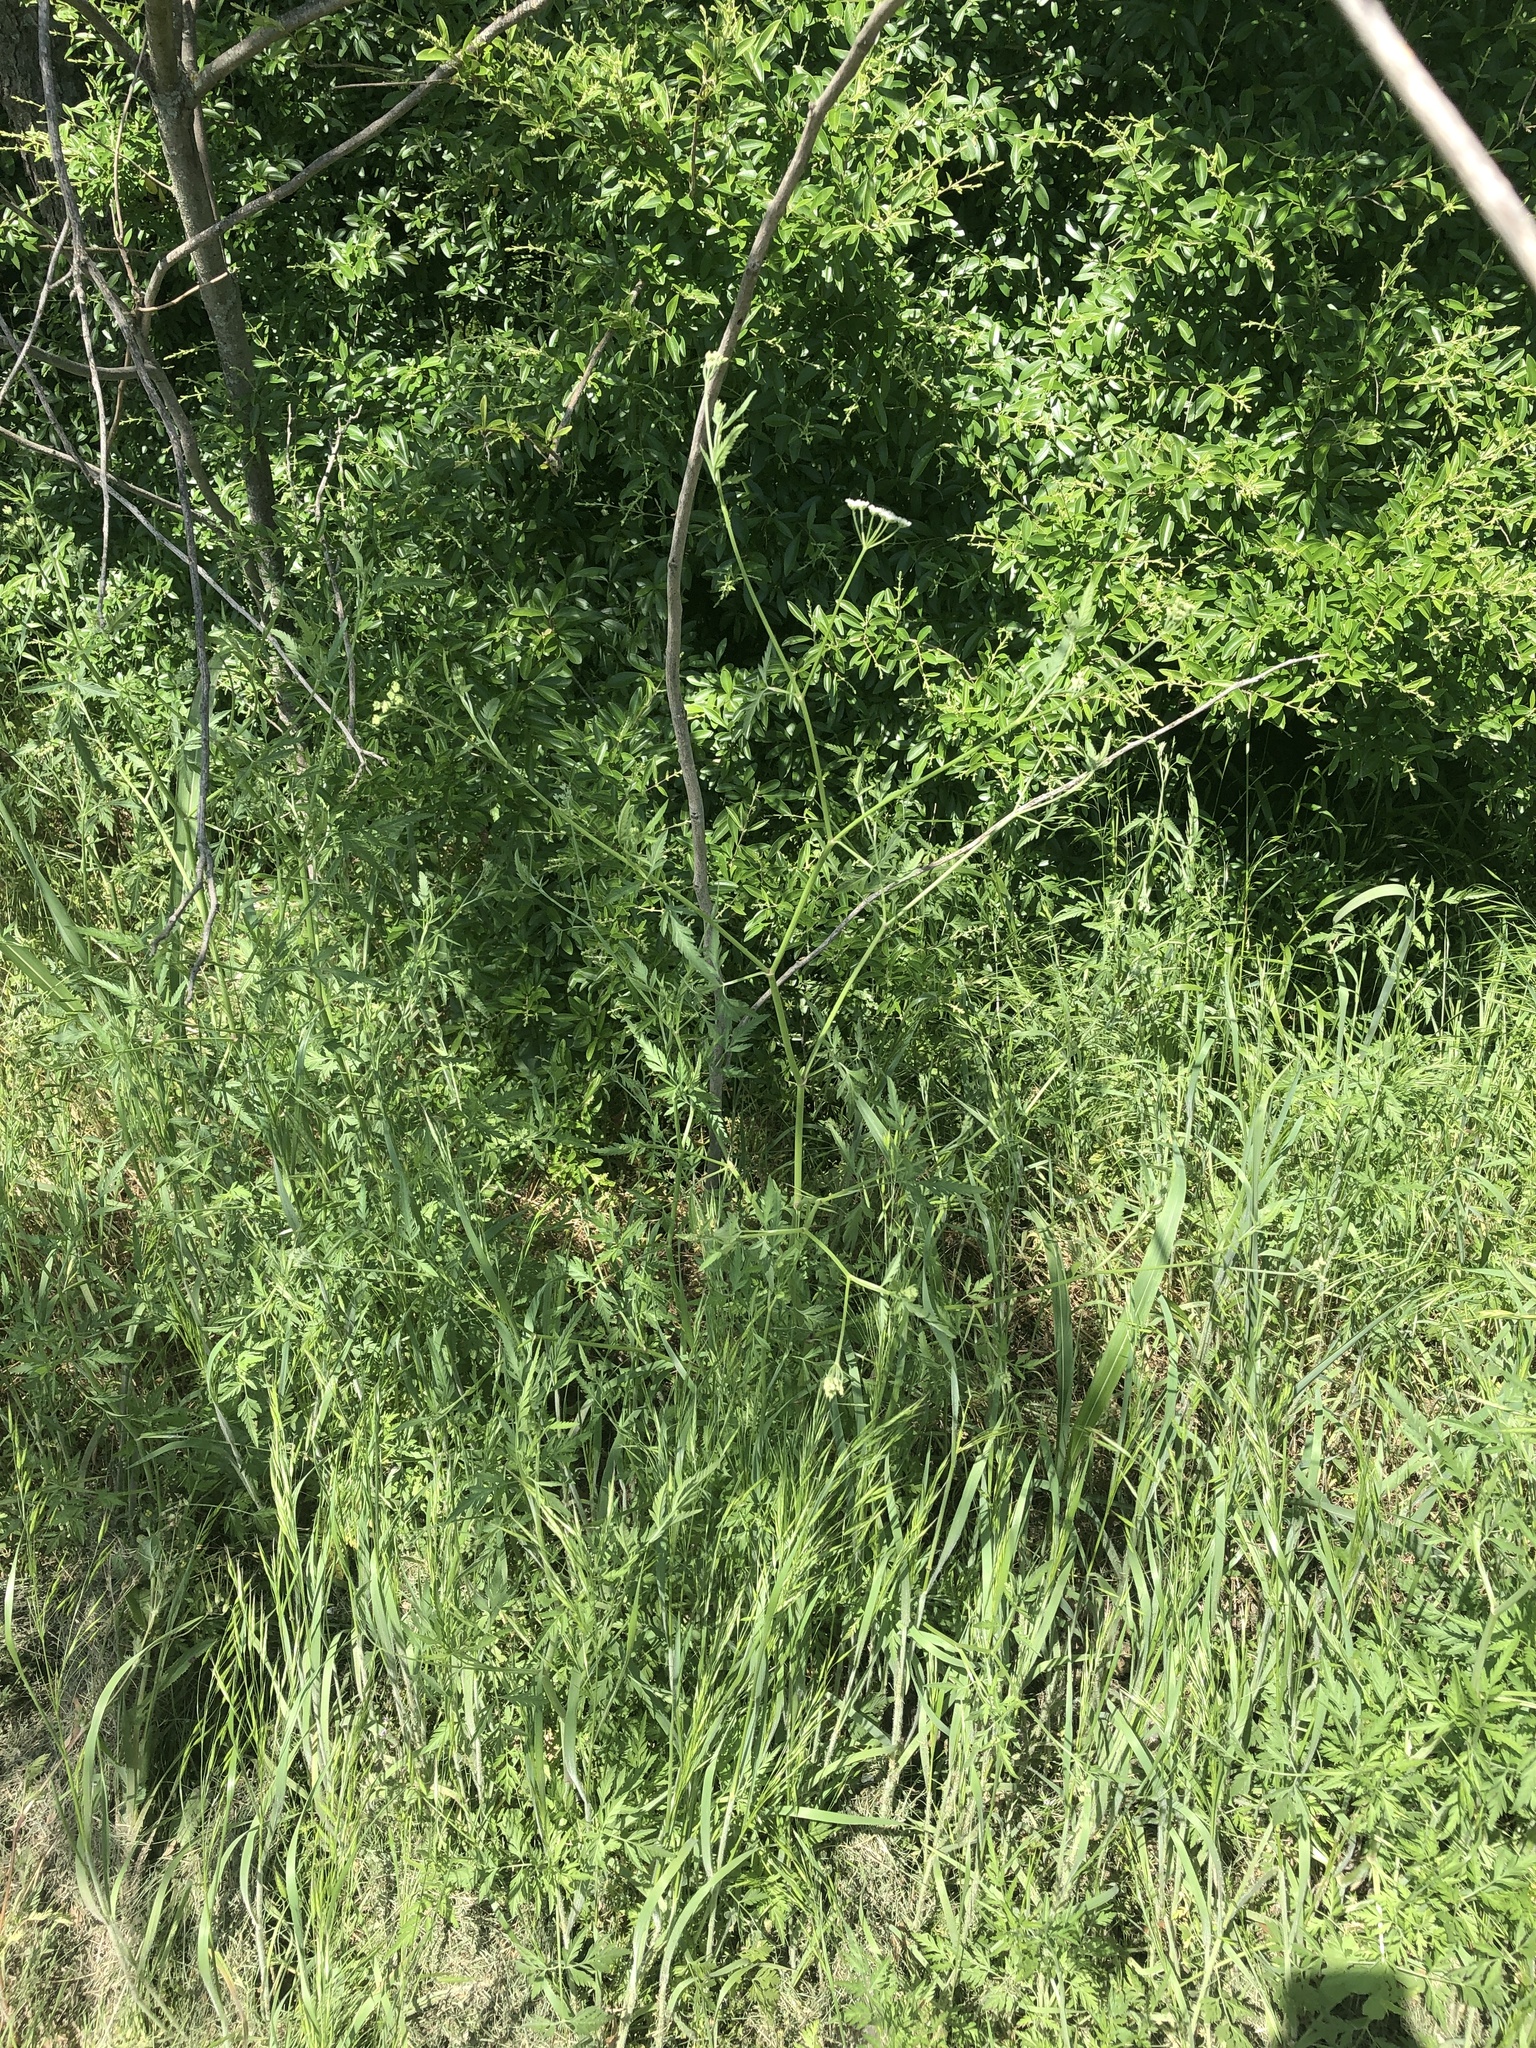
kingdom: Plantae
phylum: Tracheophyta
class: Magnoliopsida
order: Apiales
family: Apiaceae
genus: Torilis
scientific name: Torilis arvensis
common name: Spreading hedge-parsley
